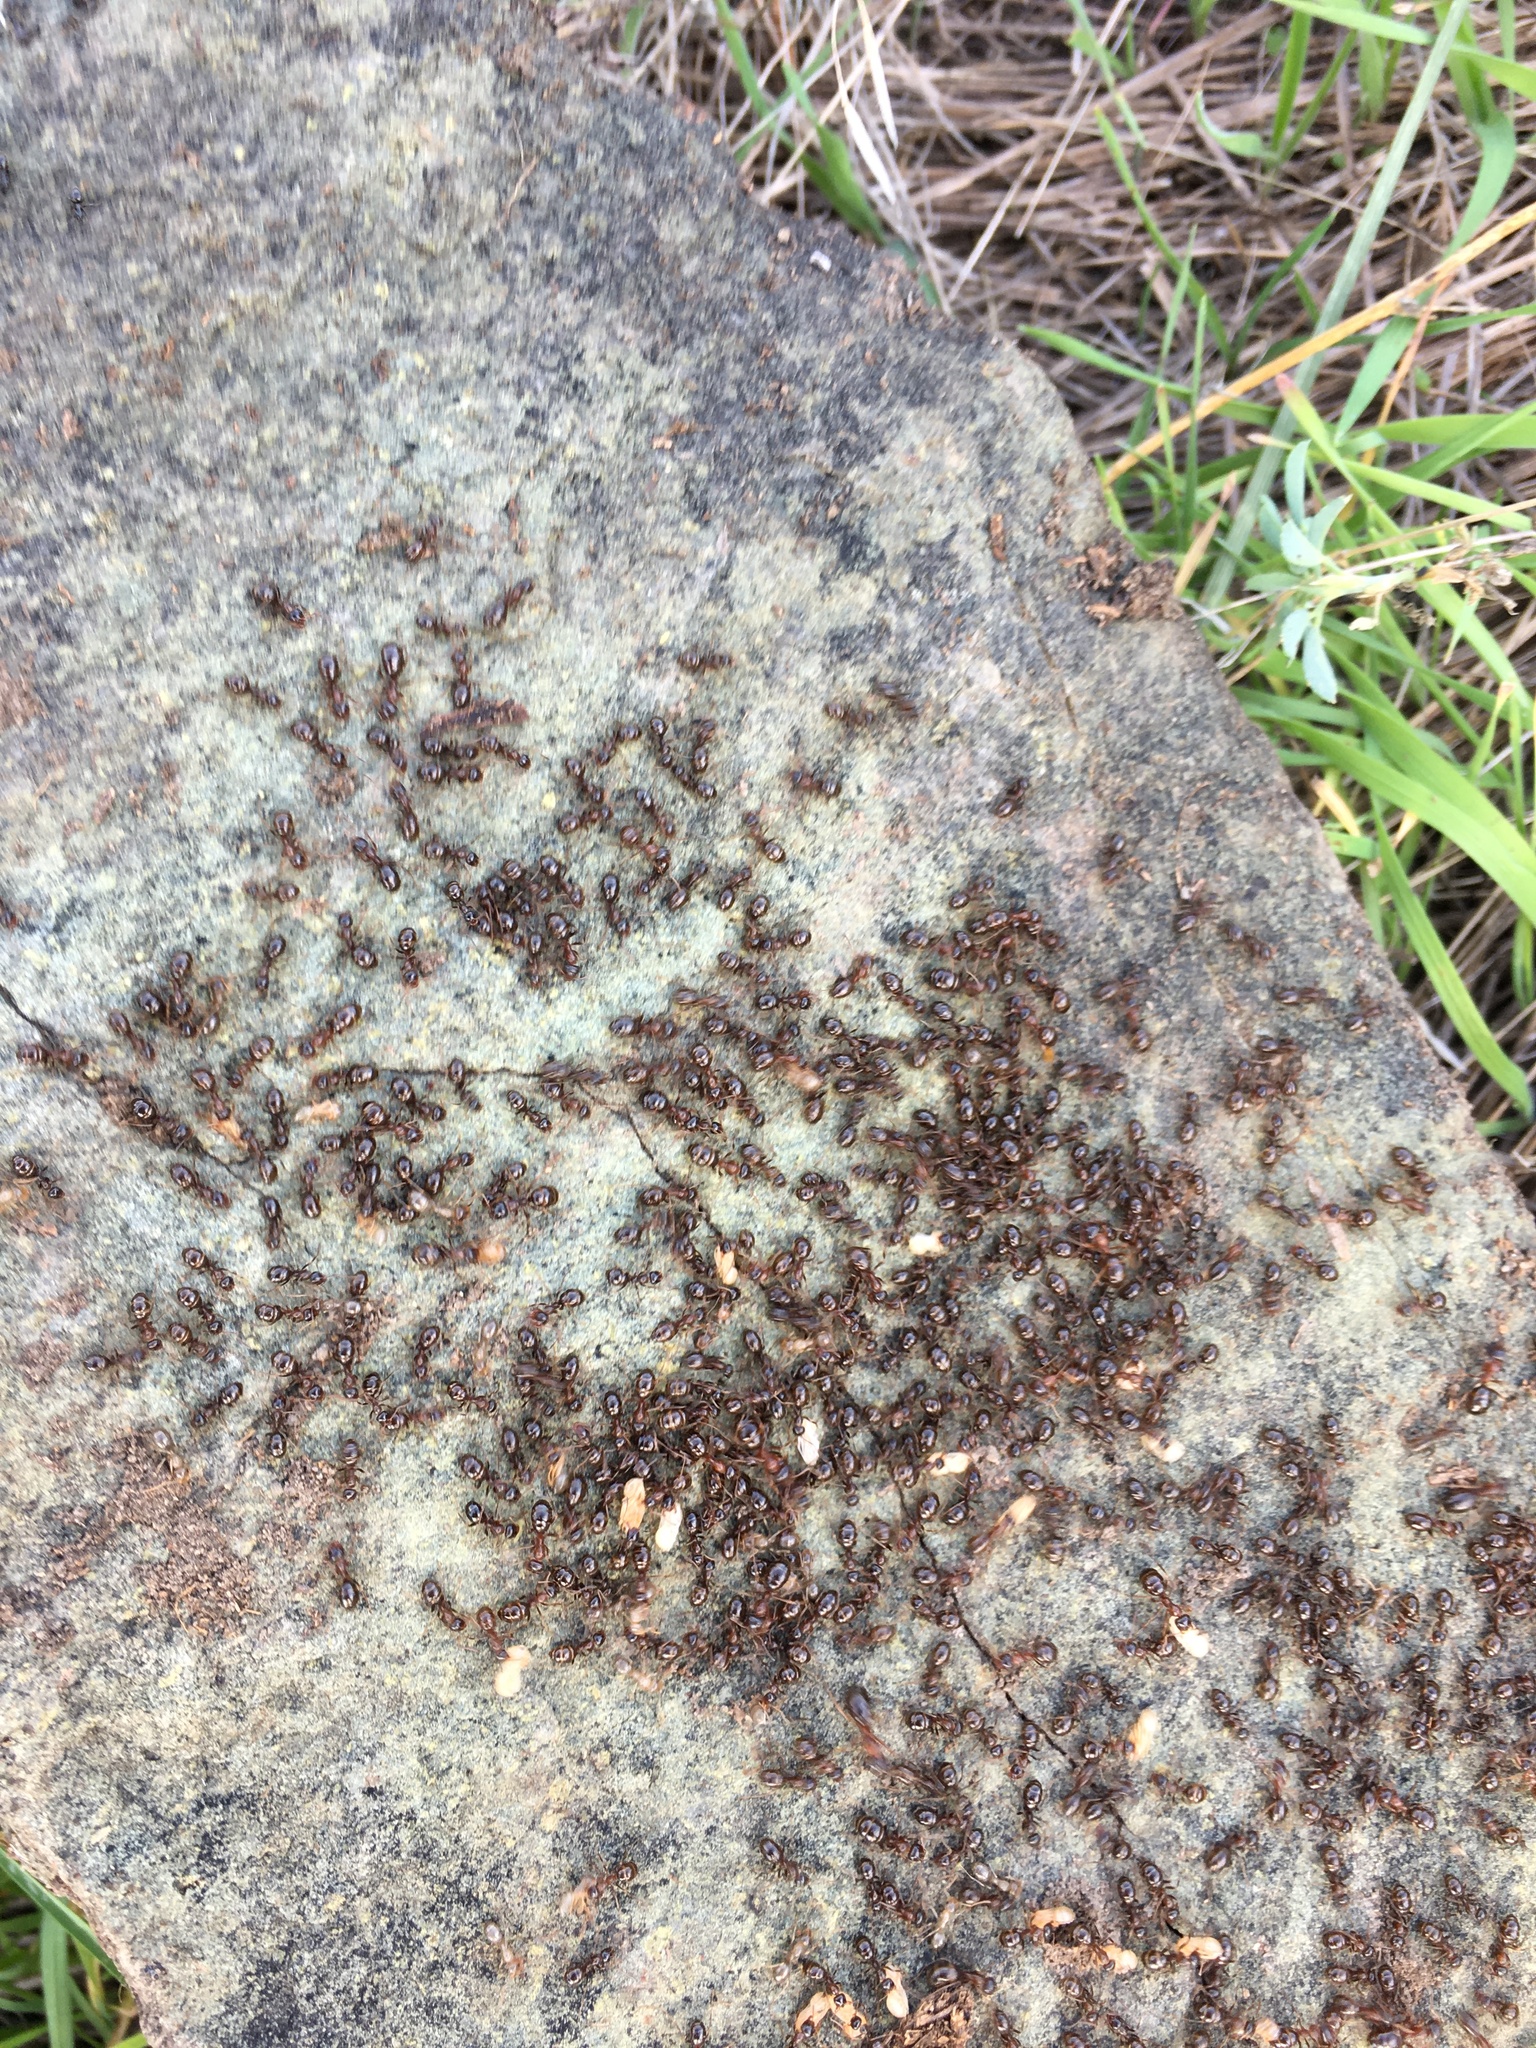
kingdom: Animalia
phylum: Arthropoda
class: Insecta
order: Hymenoptera
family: Formicidae
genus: Formica
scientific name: Formica subpolita
